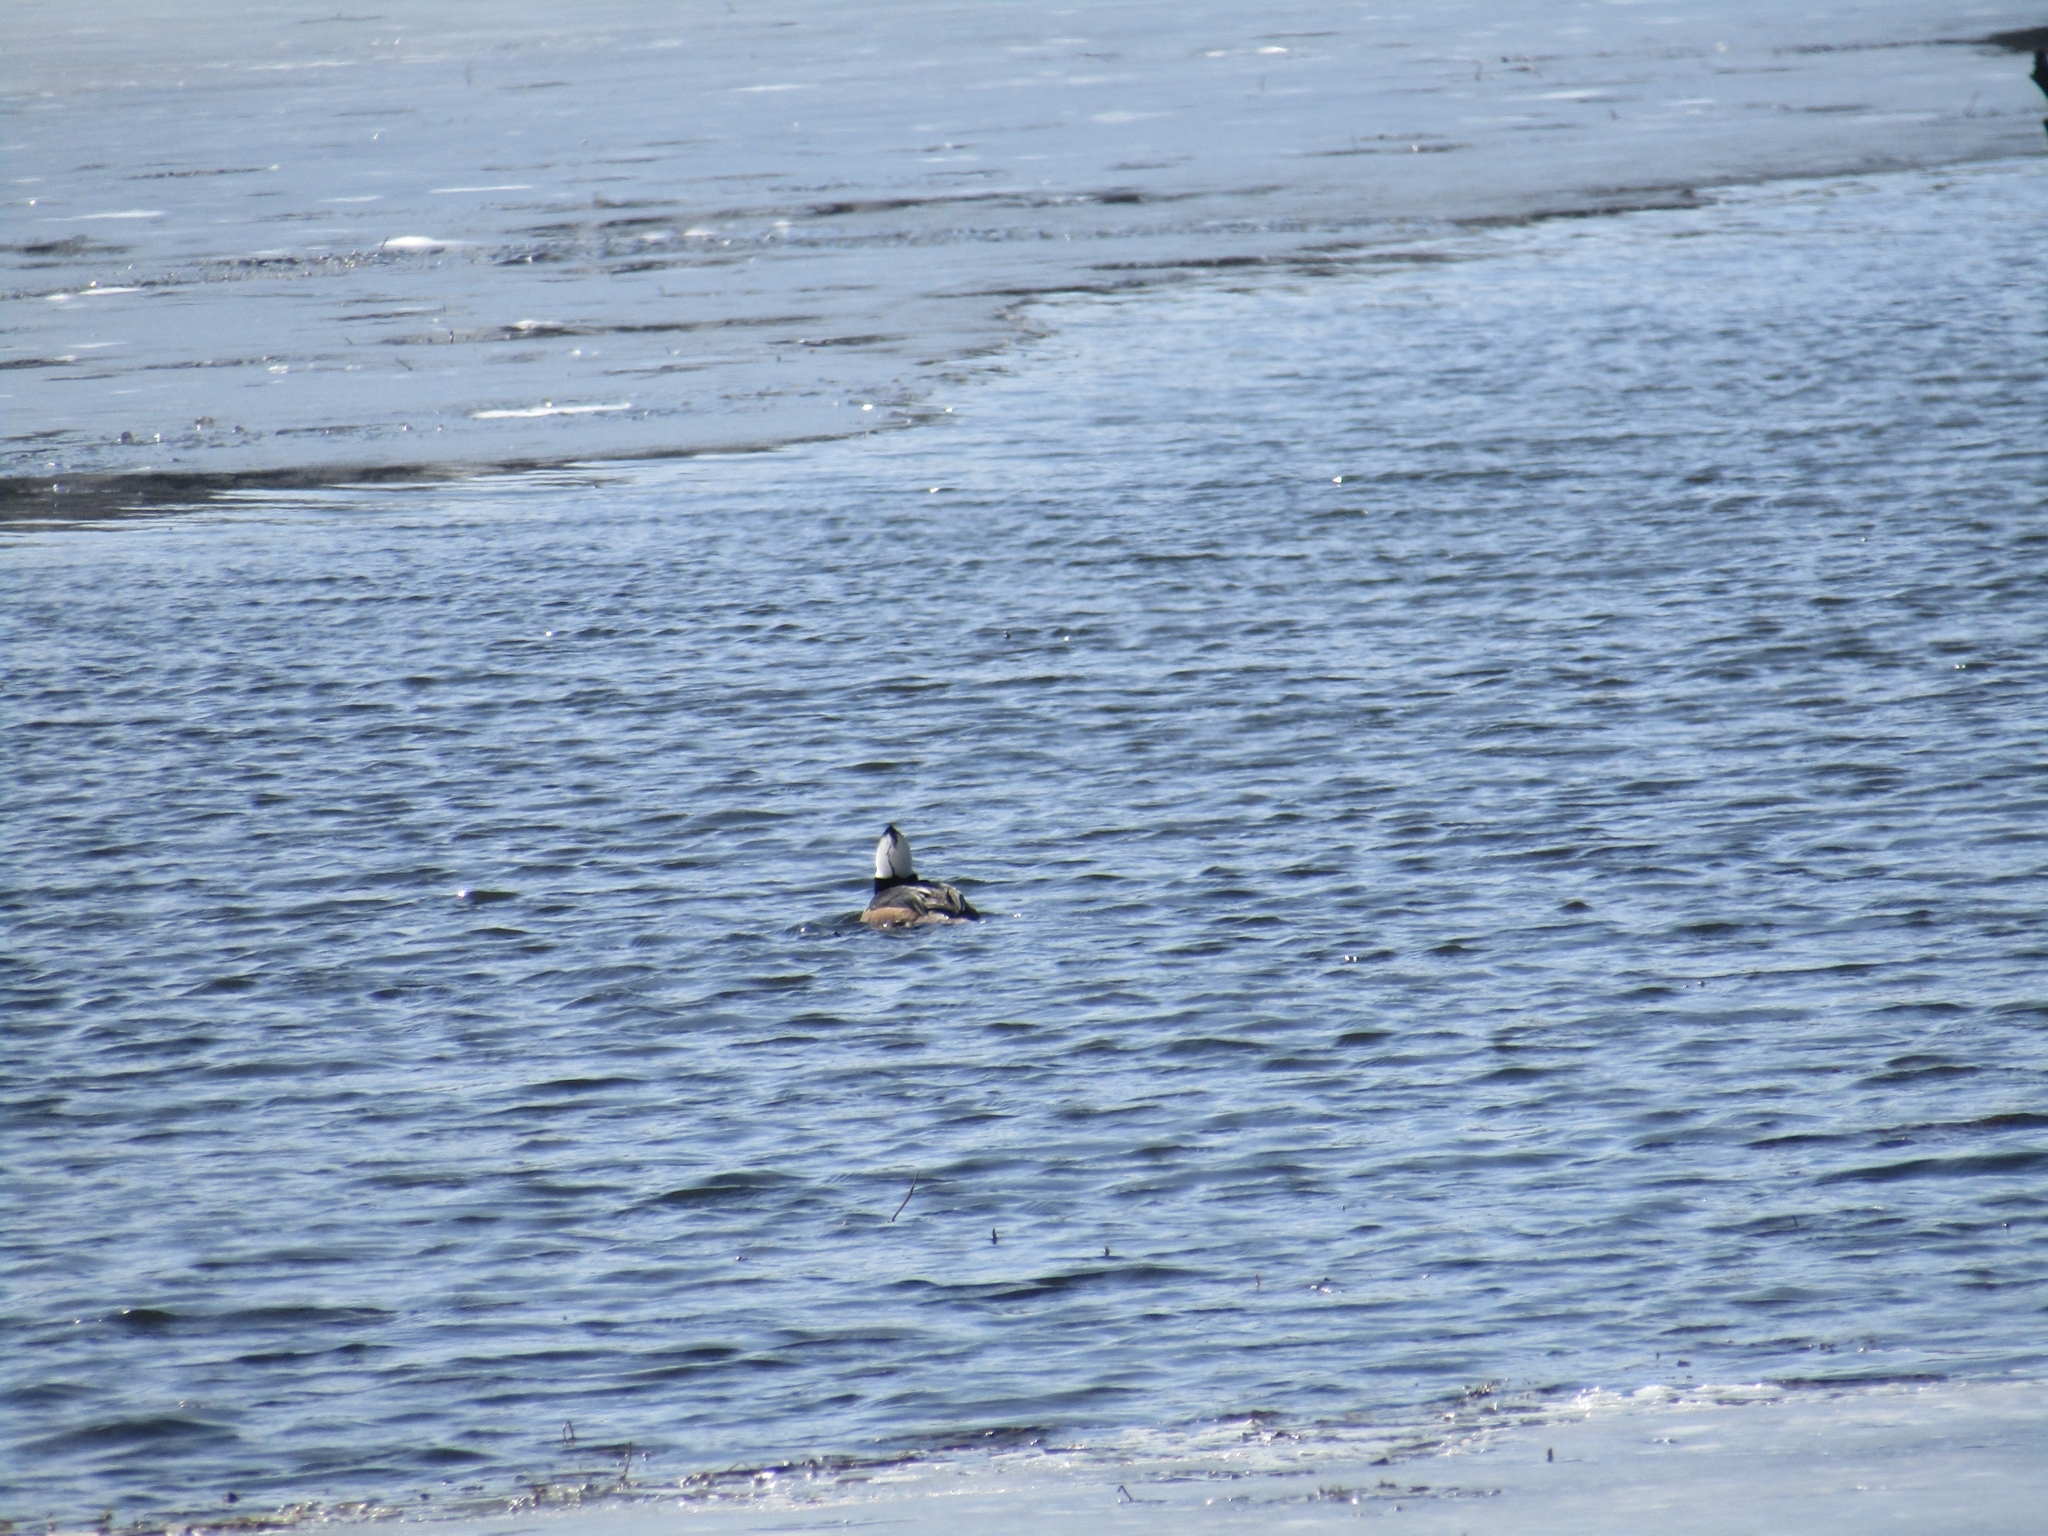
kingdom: Animalia
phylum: Chordata
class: Aves
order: Anseriformes
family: Anatidae
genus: Lophodytes
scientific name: Lophodytes cucullatus
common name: Hooded merganser
